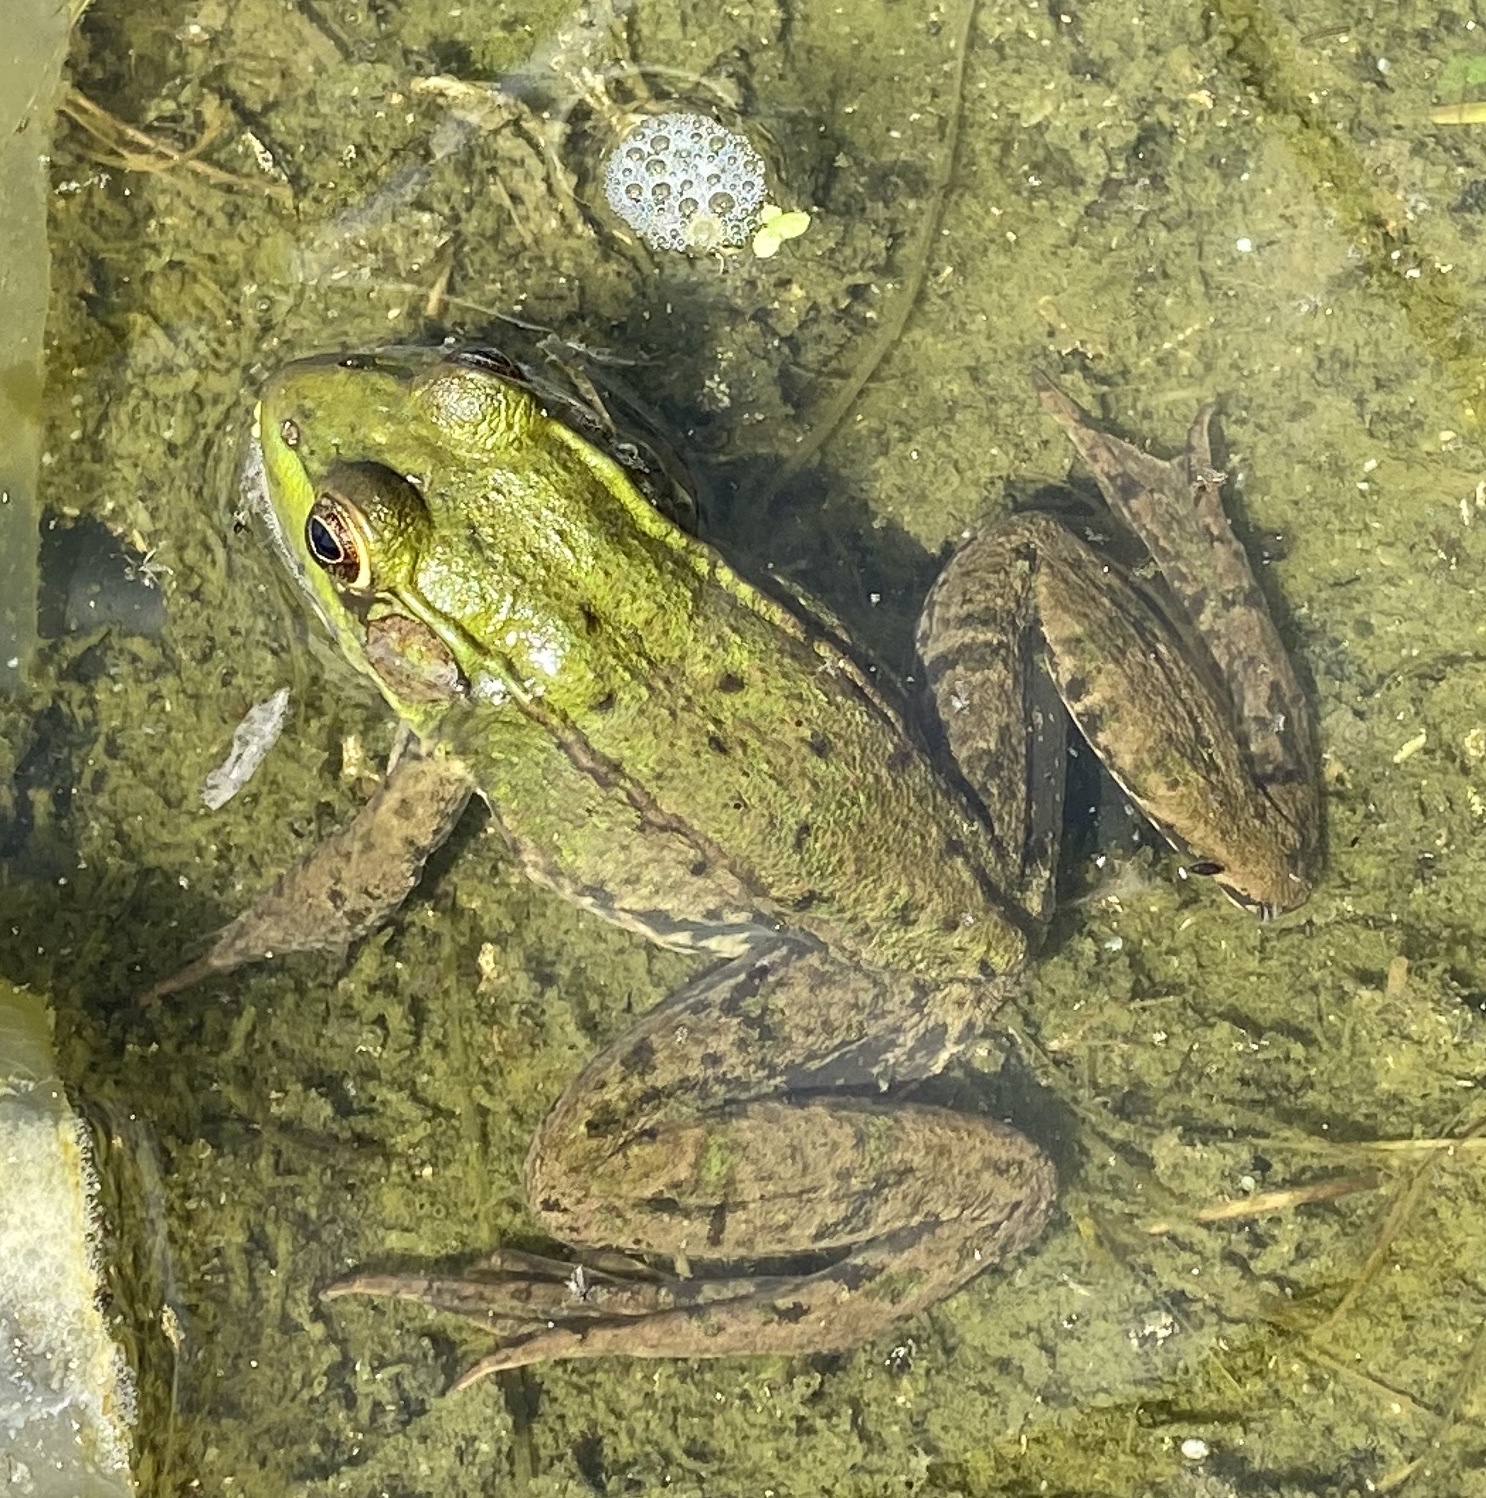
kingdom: Animalia
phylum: Chordata
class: Amphibia
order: Anura
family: Ranidae
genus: Lithobates
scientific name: Lithobates clamitans
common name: Green frog
